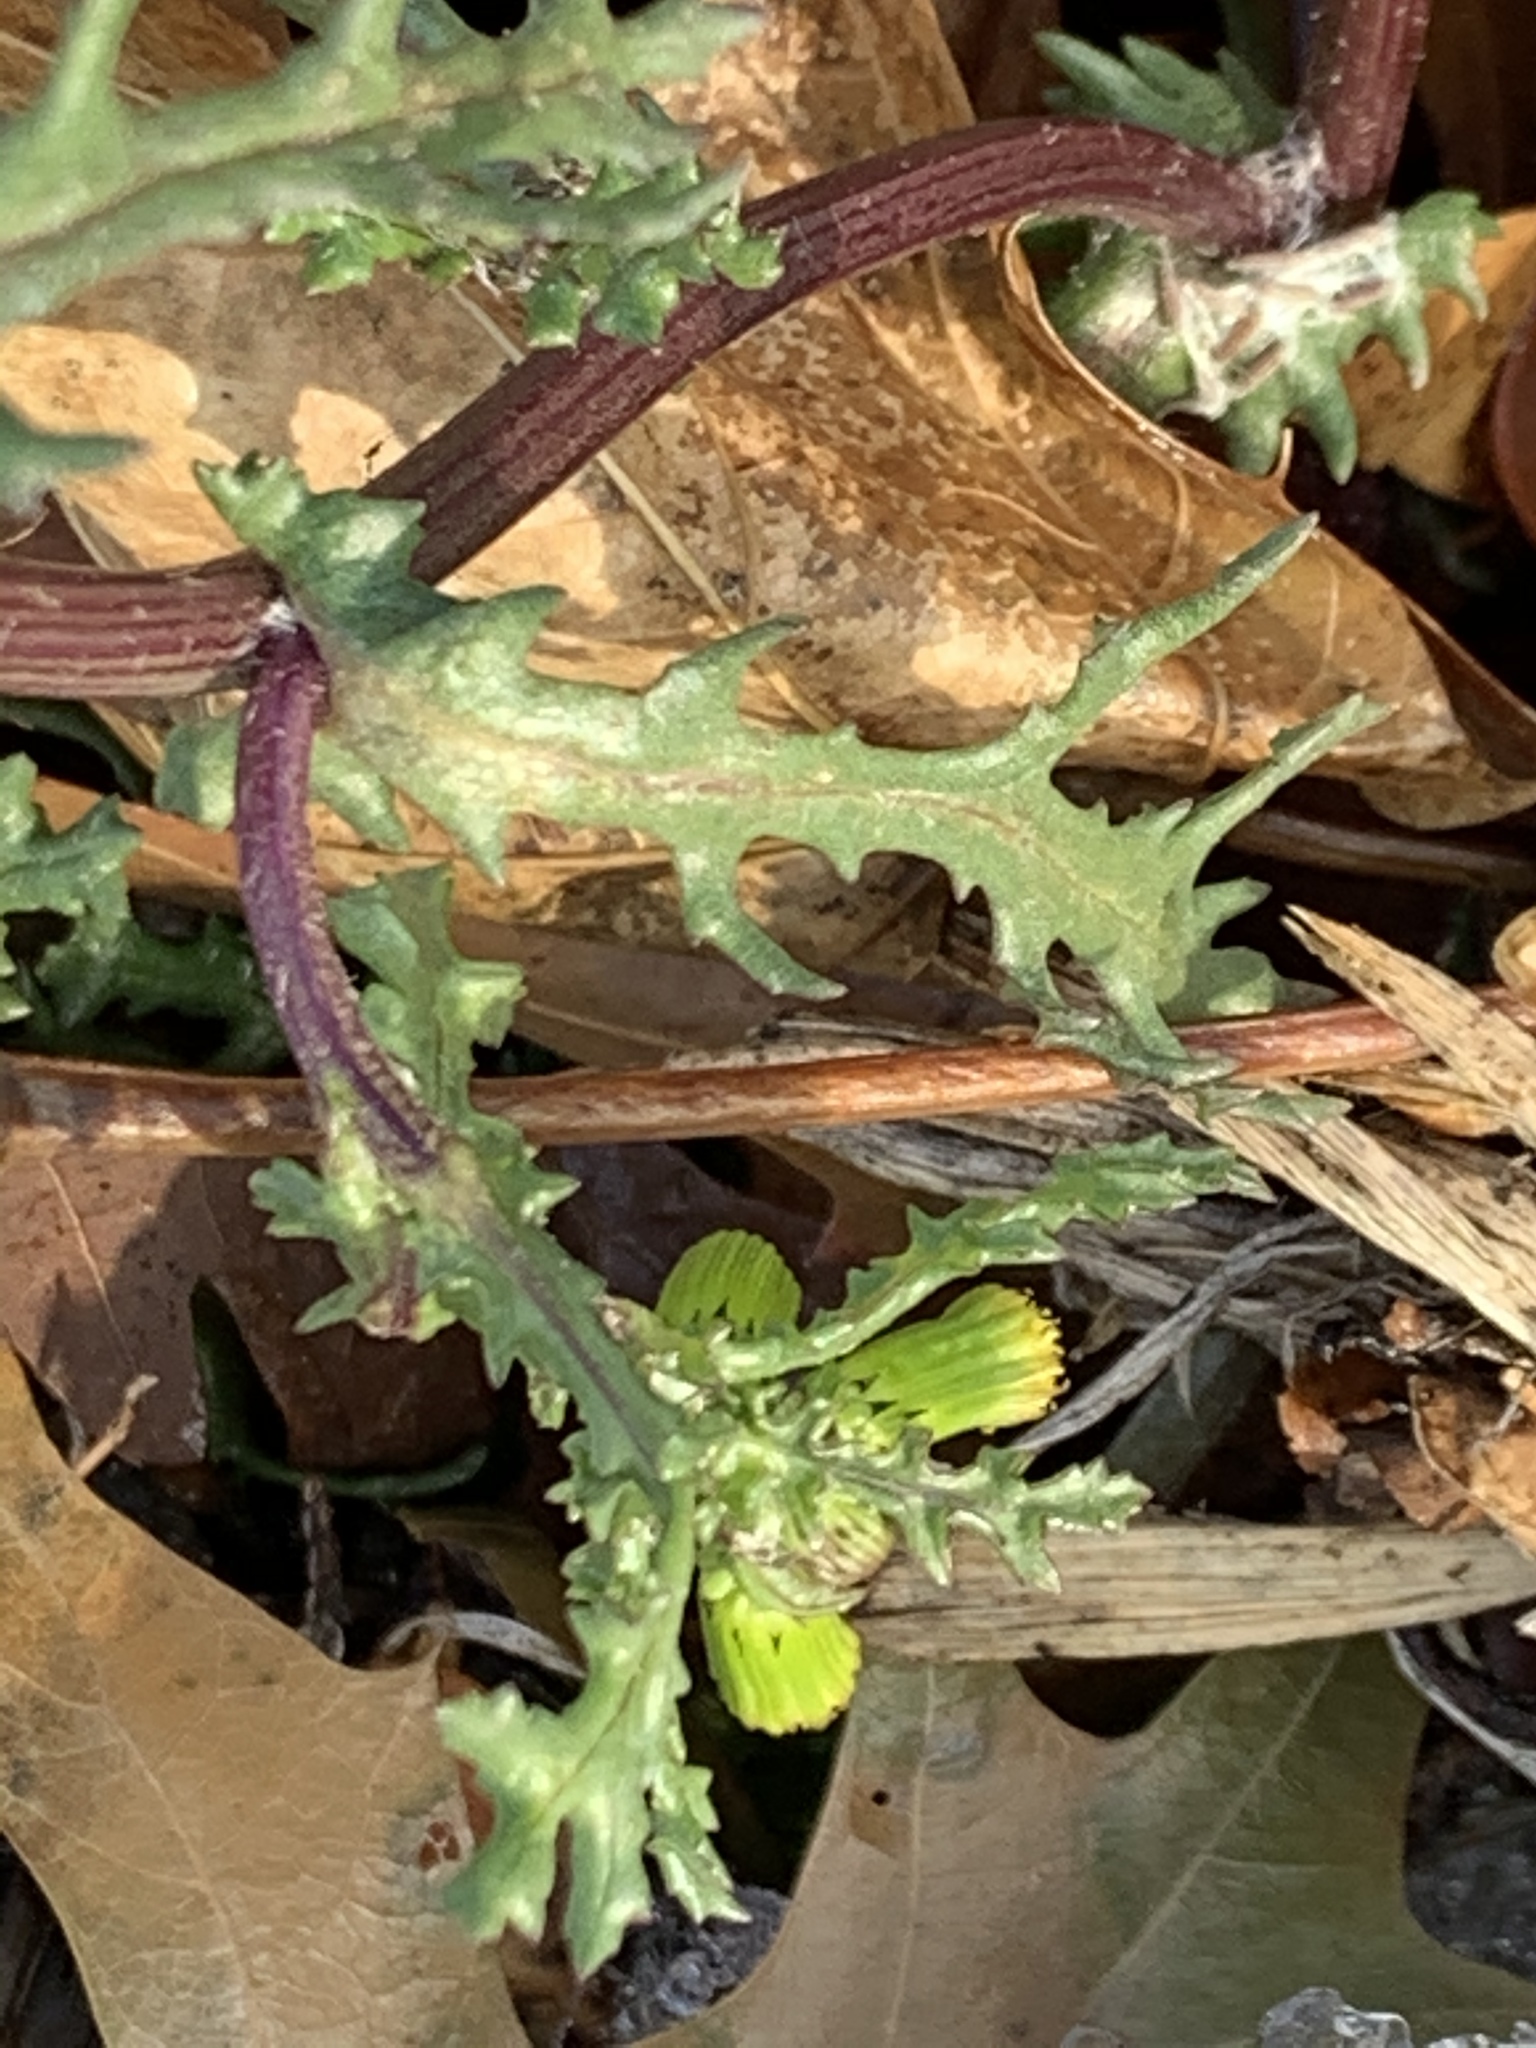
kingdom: Plantae
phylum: Tracheophyta
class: Magnoliopsida
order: Asterales
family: Asteraceae
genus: Senecio
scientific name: Senecio vulgaris
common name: Old-man-in-the-spring
